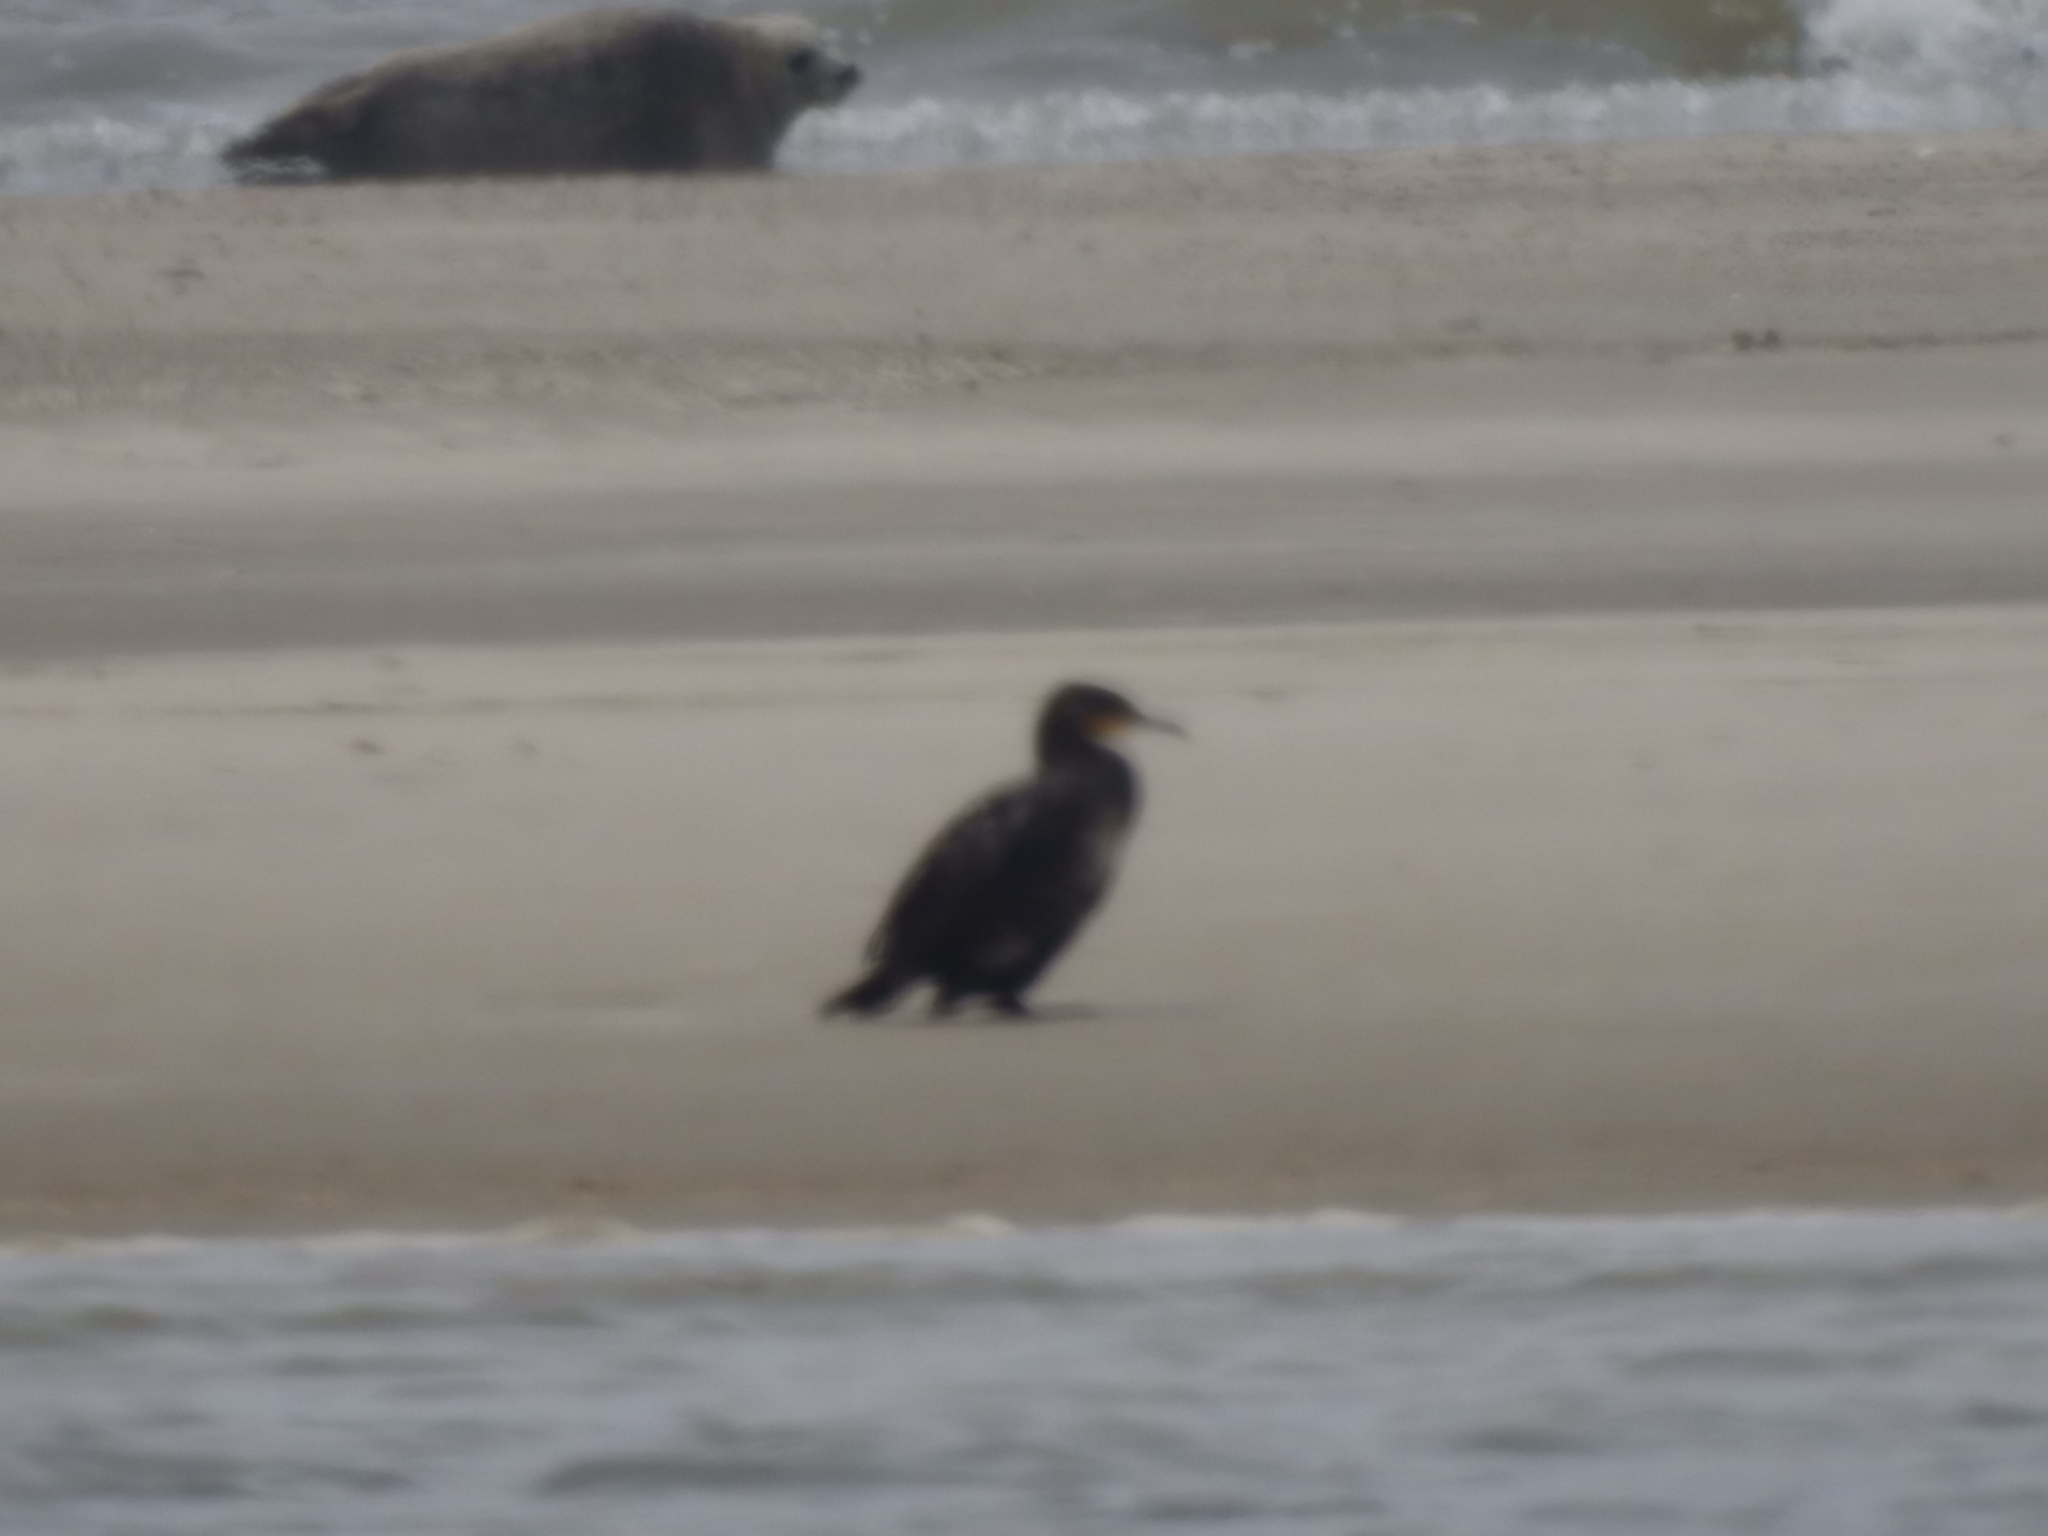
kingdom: Animalia
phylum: Chordata
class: Aves
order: Suliformes
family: Phalacrocoracidae
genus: Phalacrocorax
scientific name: Phalacrocorax carbo
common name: Great cormorant
